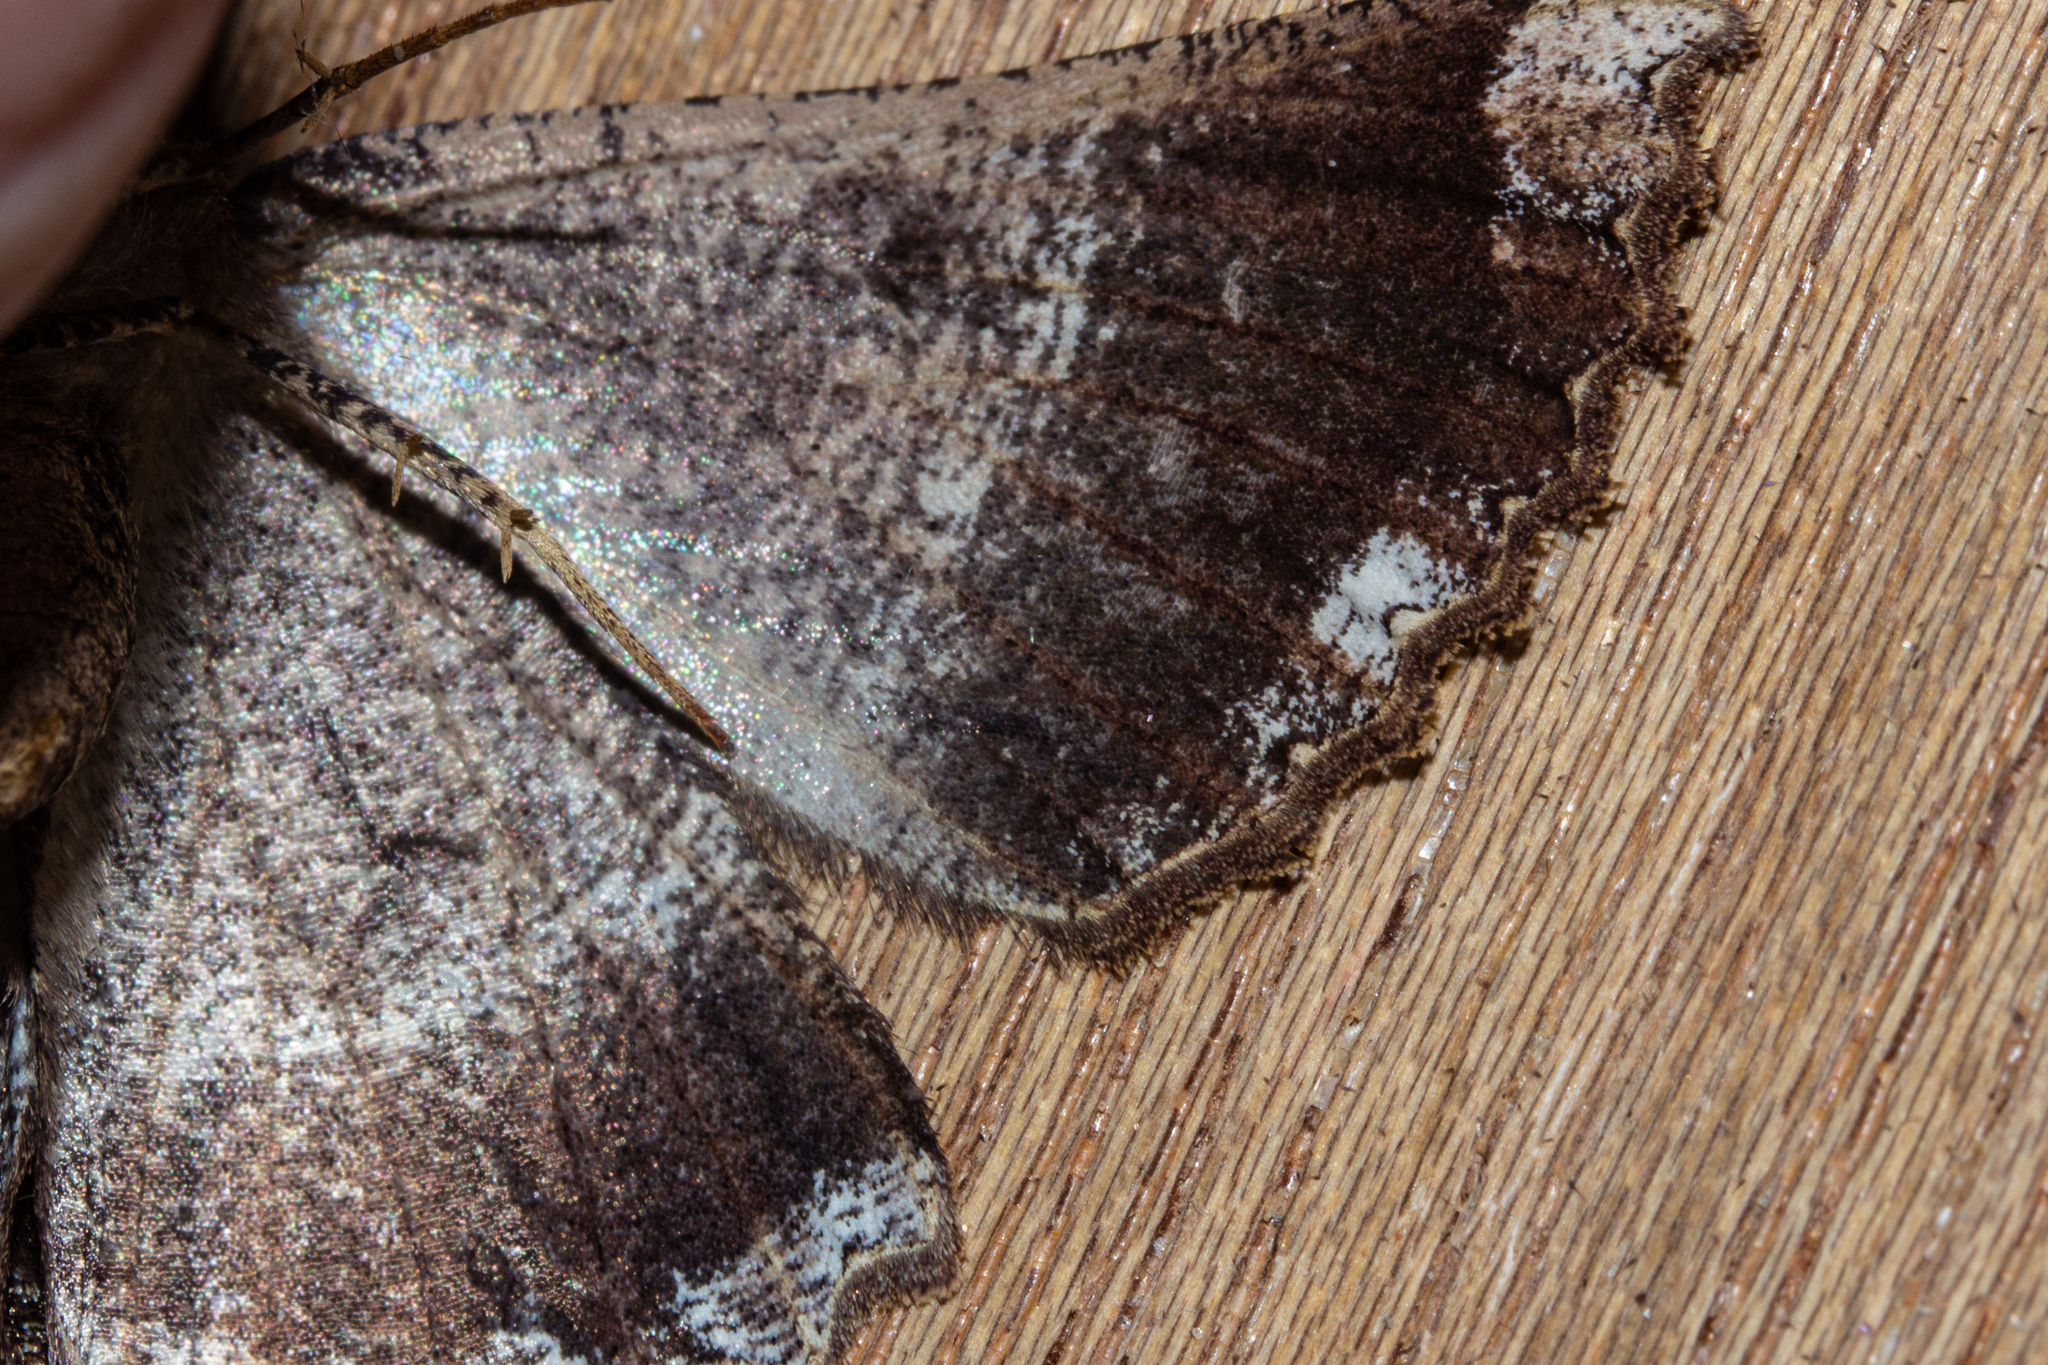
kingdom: Animalia
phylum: Arthropoda
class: Insecta
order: Lepidoptera
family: Geometridae
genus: Gellonia
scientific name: Gellonia dejectaria
